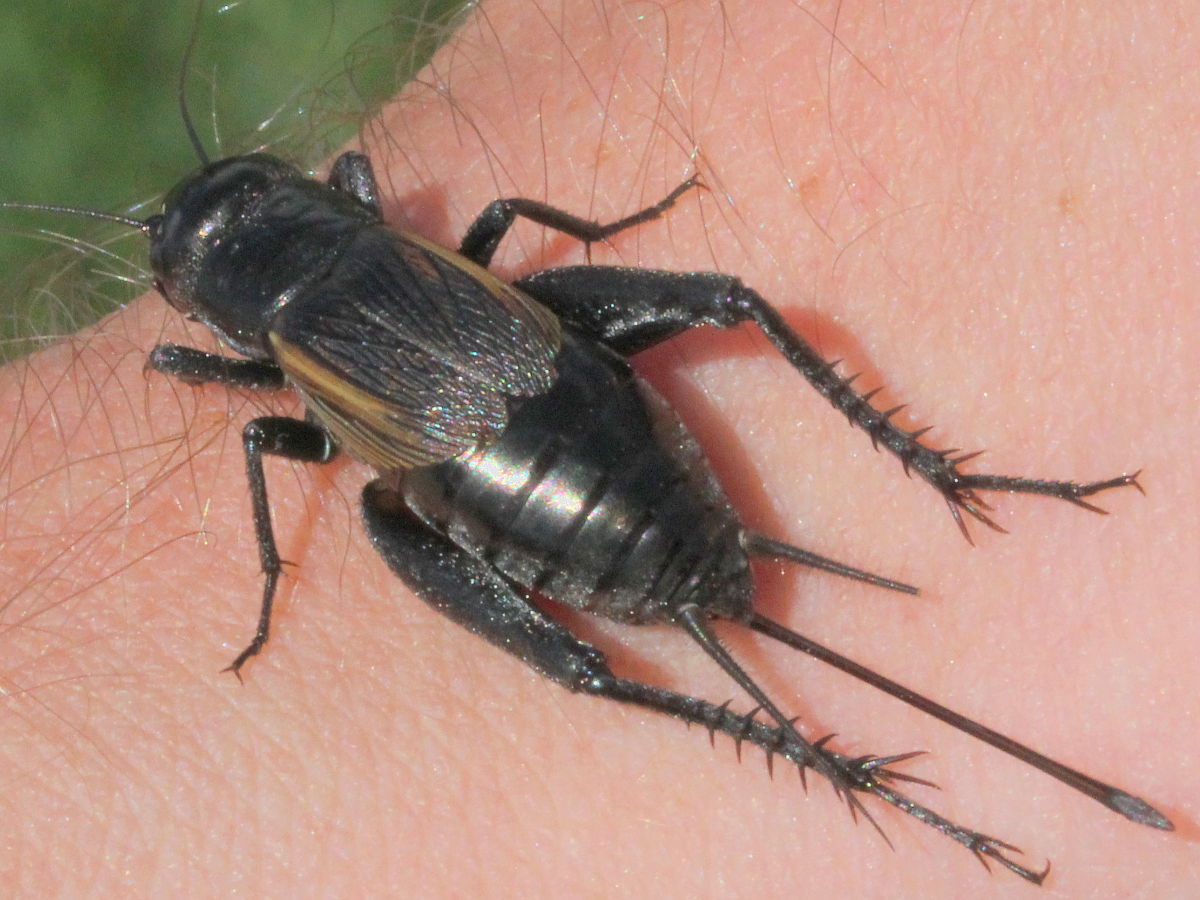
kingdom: Animalia
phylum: Arthropoda
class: Insecta
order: Orthoptera
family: Gryllidae
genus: Gryllus
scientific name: Gryllus pennsylvanicus
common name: Fall field cricket
